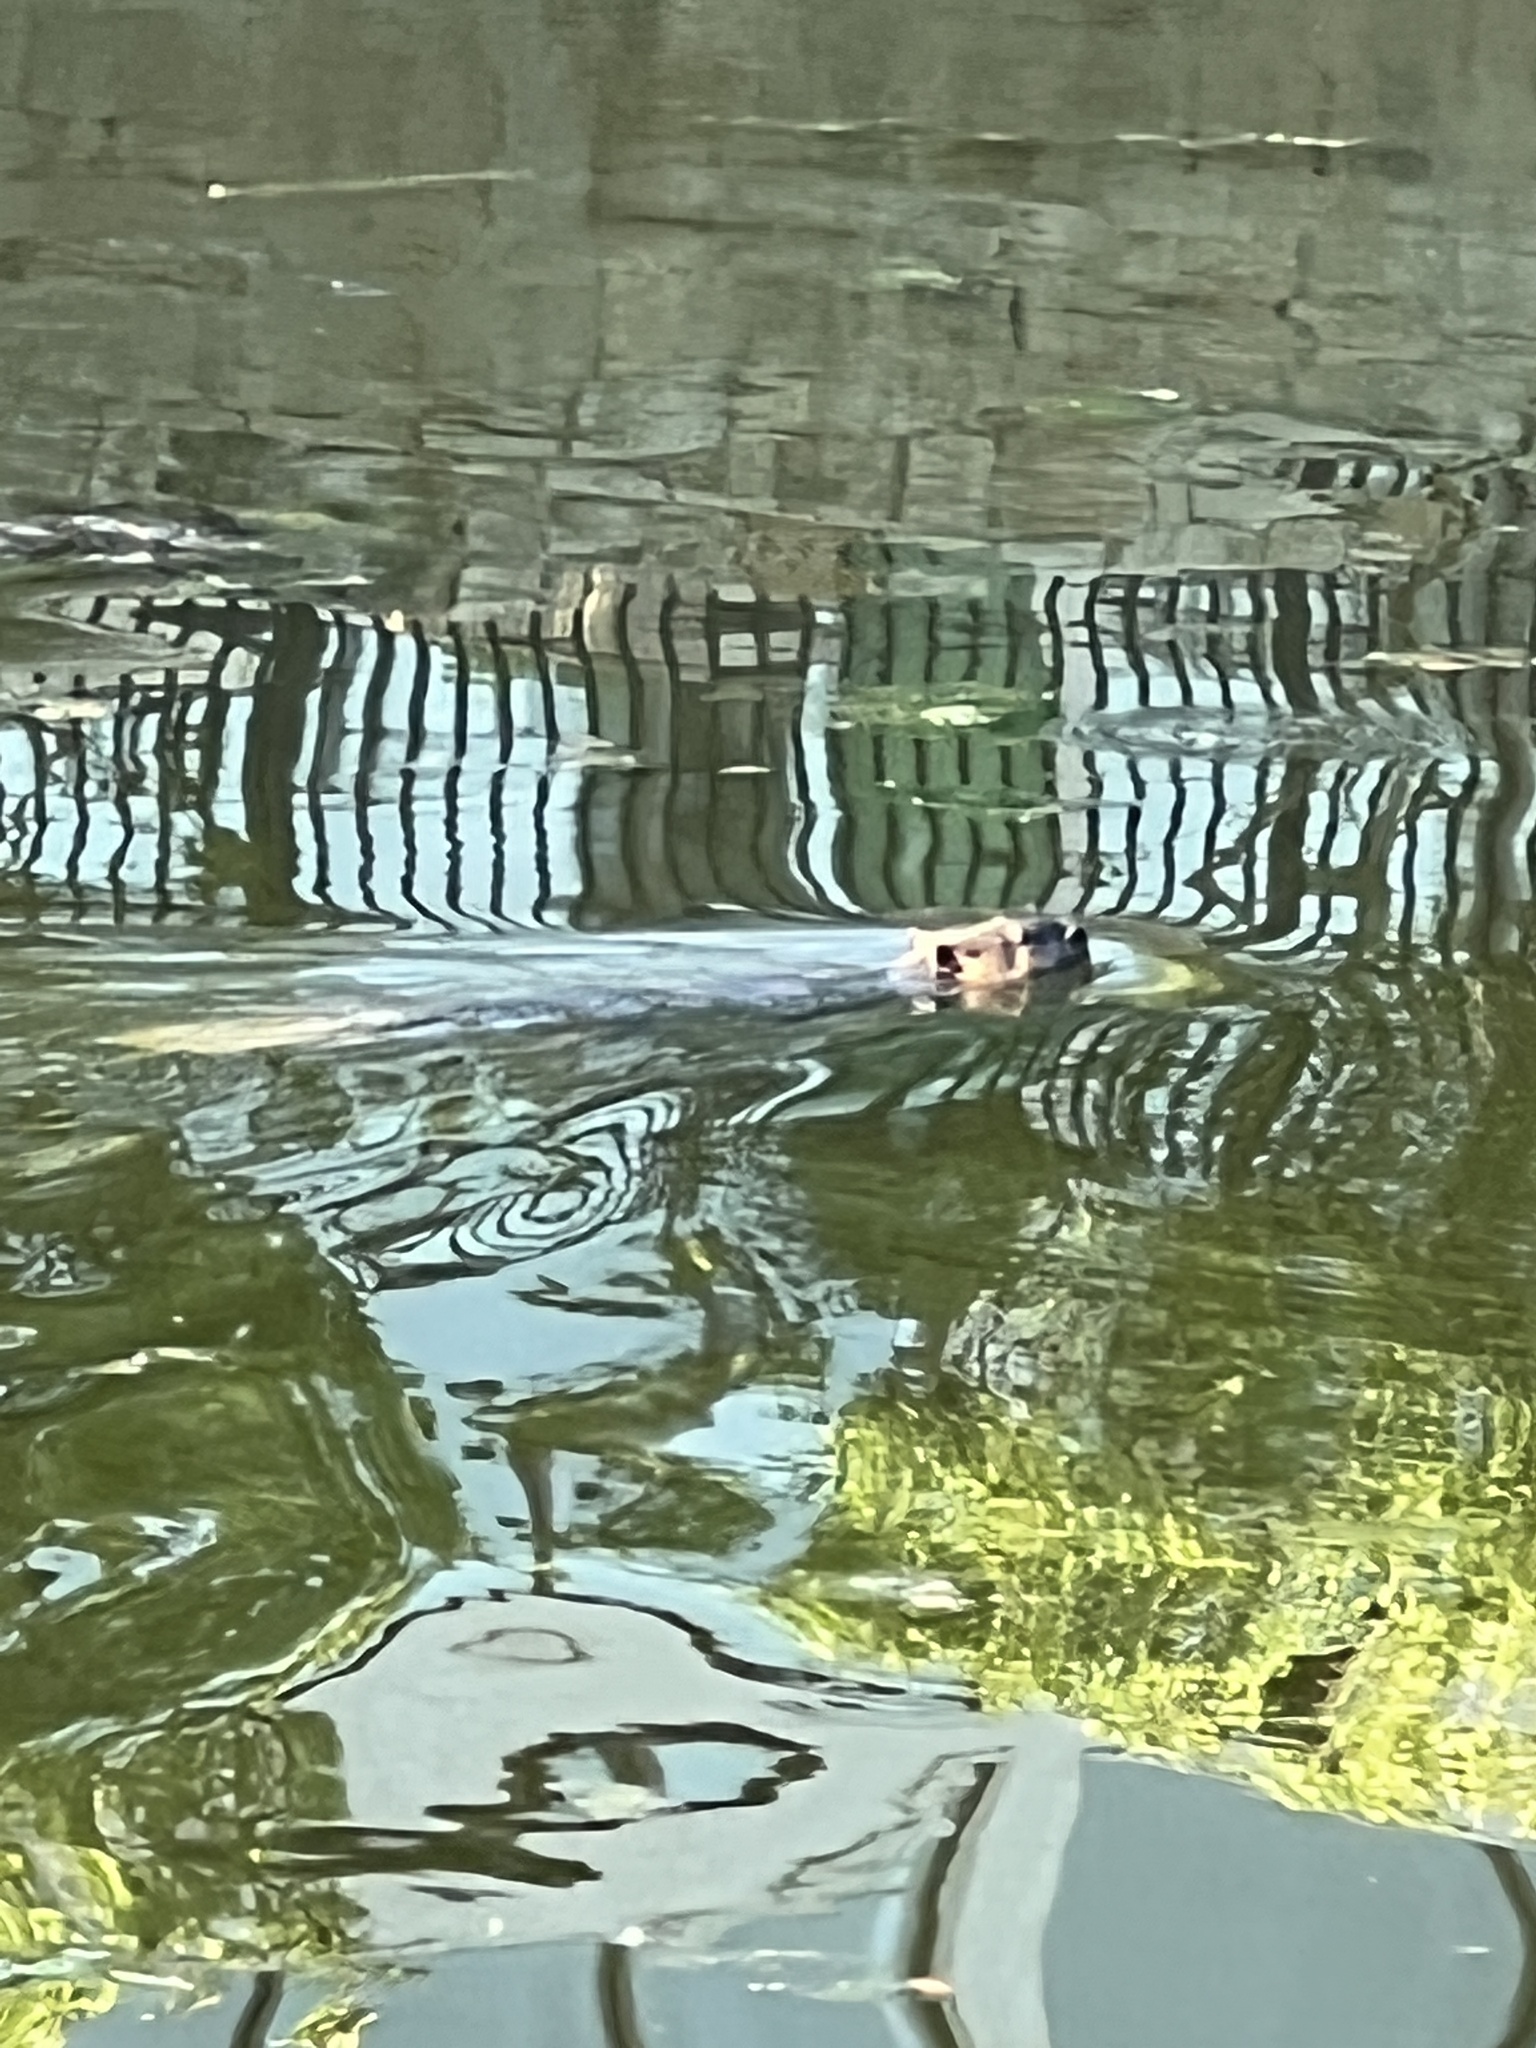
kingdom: Animalia
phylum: Chordata
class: Mammalia
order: Rodentia
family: Castoridae
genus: Castor
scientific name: Castor canadensis
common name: American beaver
